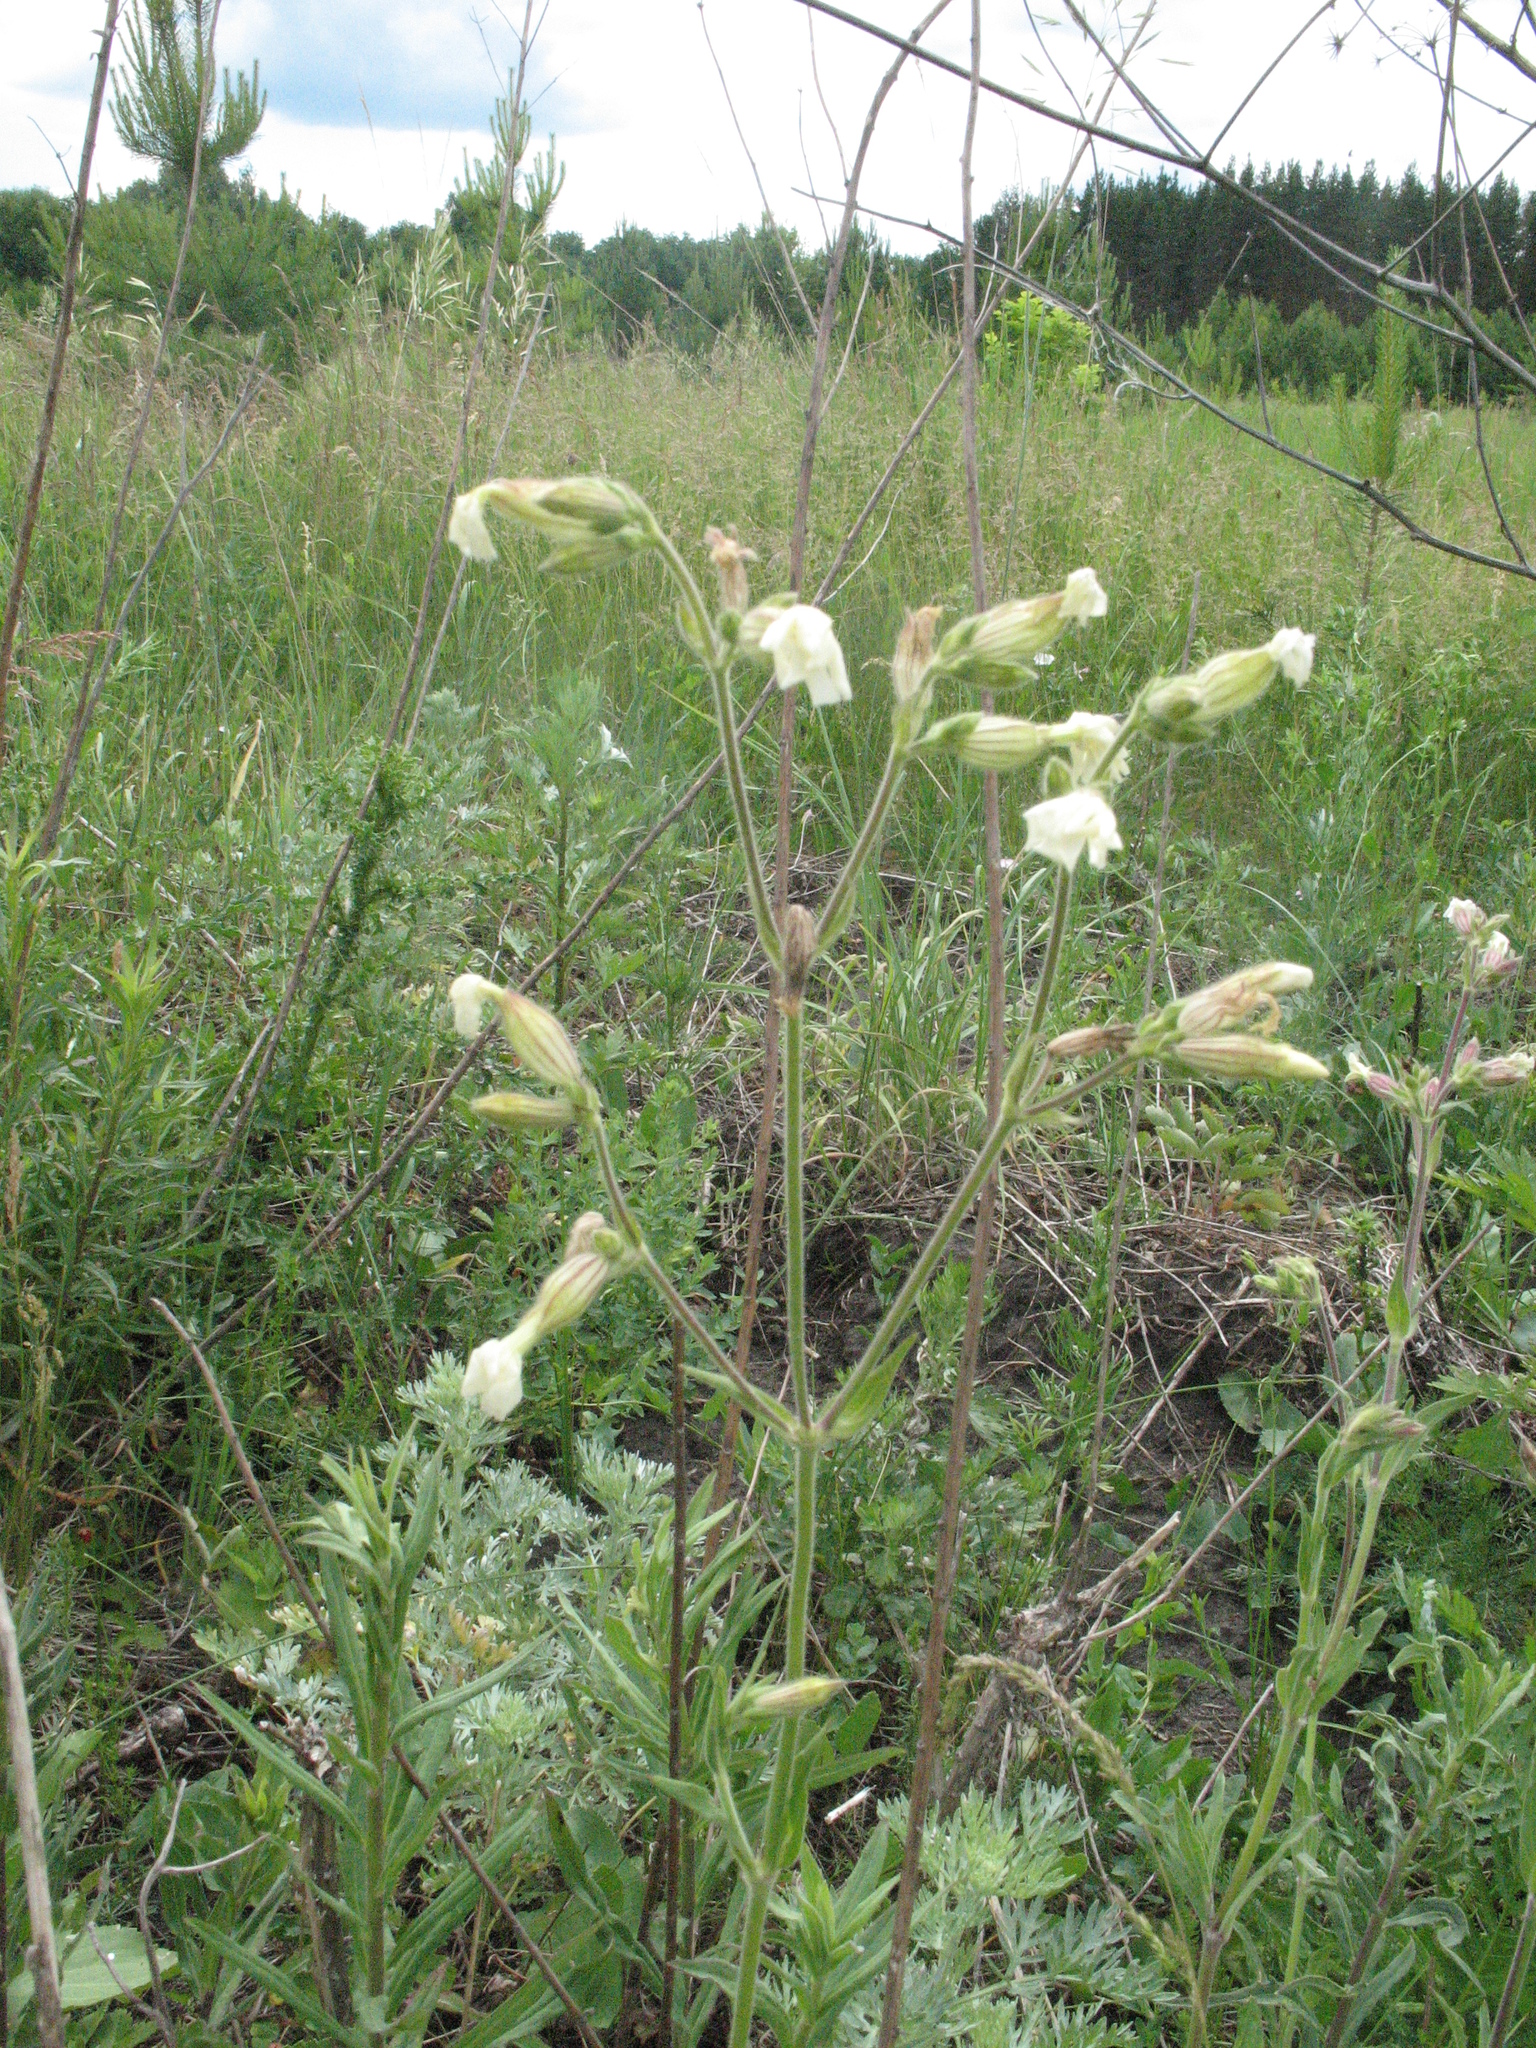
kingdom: Plantae
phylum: Tracheophyta
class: Magnoliopsida
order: Caryophyllales
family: Caryophyllaceae
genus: Silene
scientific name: Silene latifolia
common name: White campion
